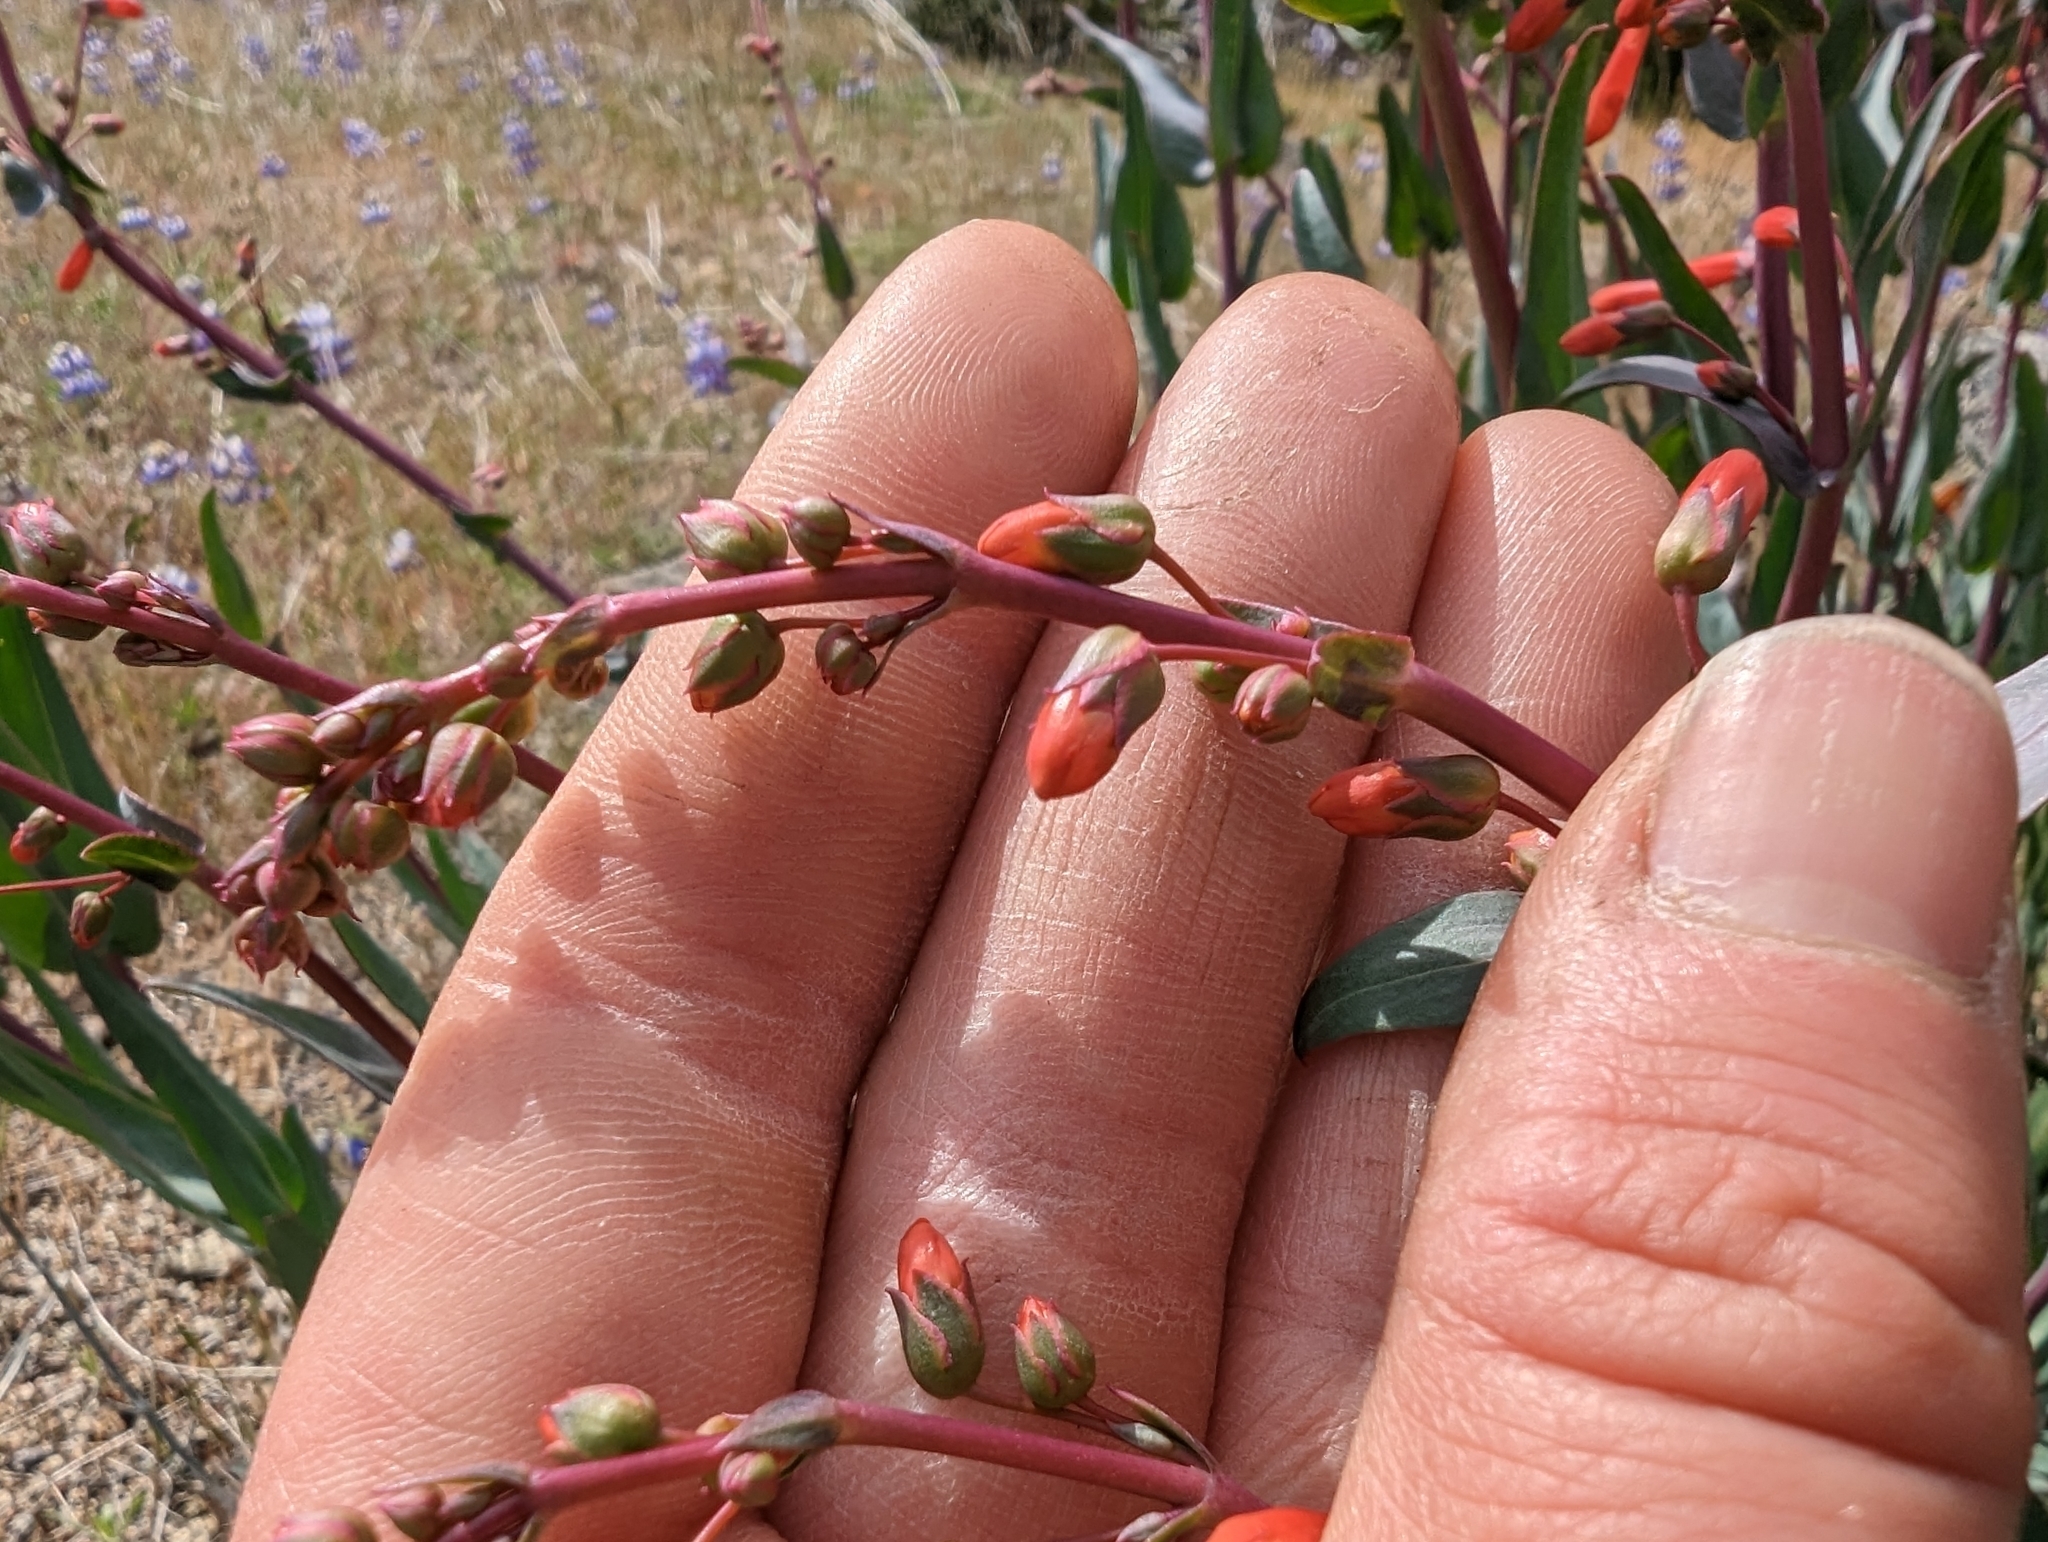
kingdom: Plantae
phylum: Tracheophyta
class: Magnoliopsida
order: Lamiales
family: Plantaginaceae
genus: Penstemon
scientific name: Penstemon centranthifolius
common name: Scarlet bugler
